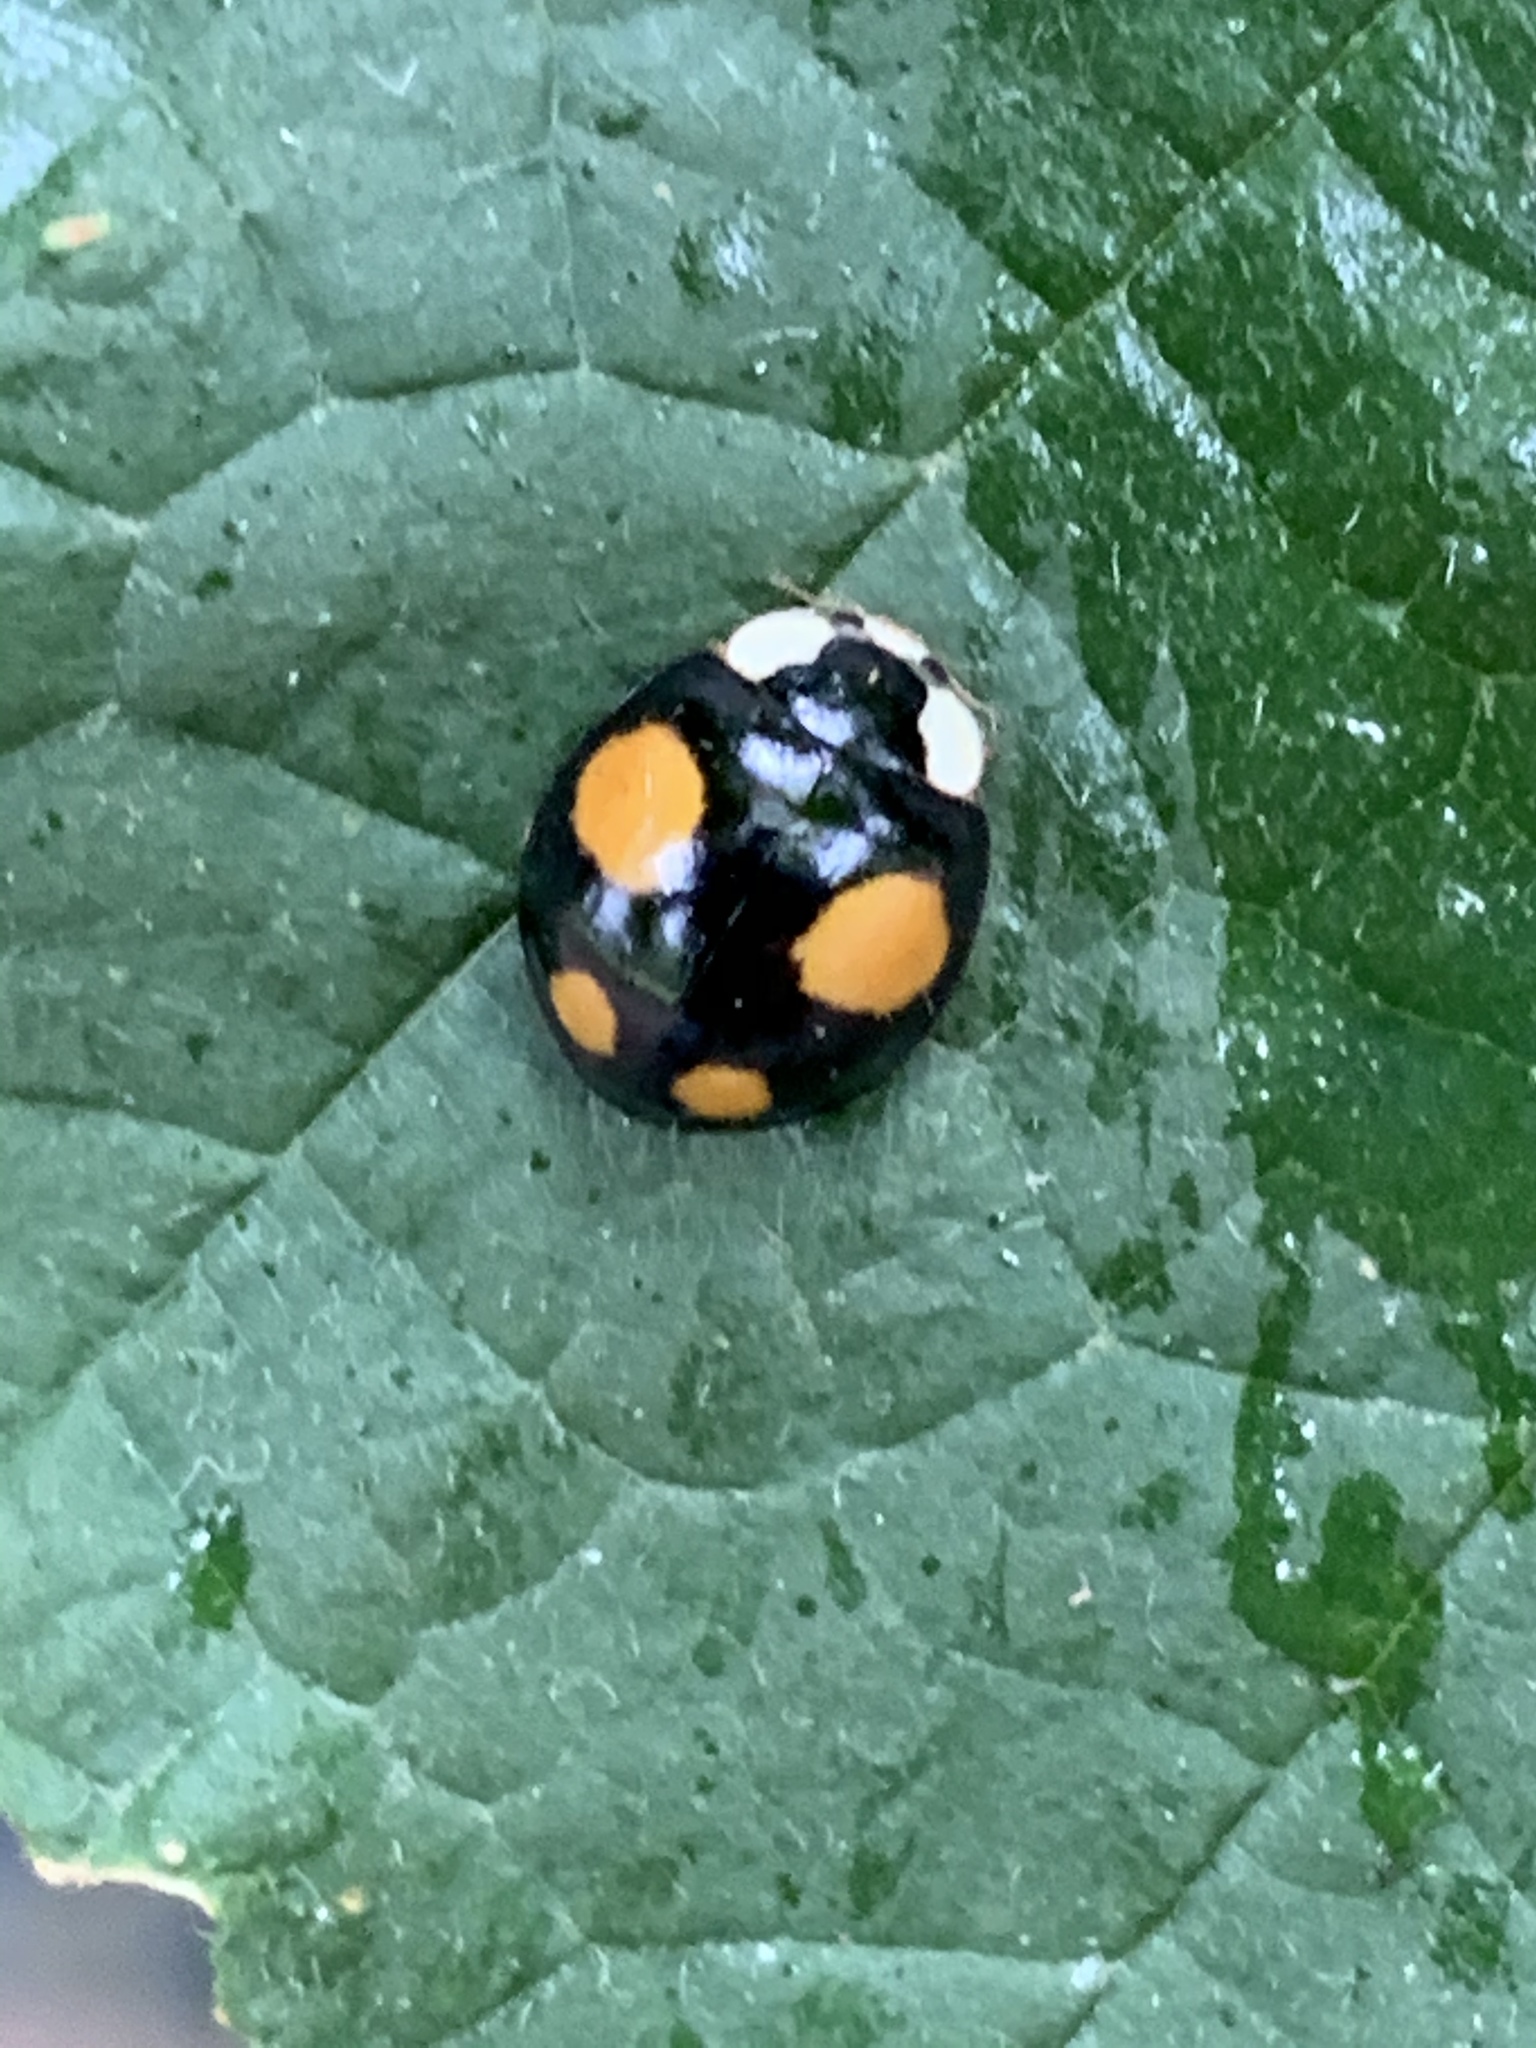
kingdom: Animalia
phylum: Arthropoda
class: Insecta
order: Coleoptera
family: Coccinellidae
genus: Harmonia
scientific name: Harmonia axyridis
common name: Harlequin ladybird
